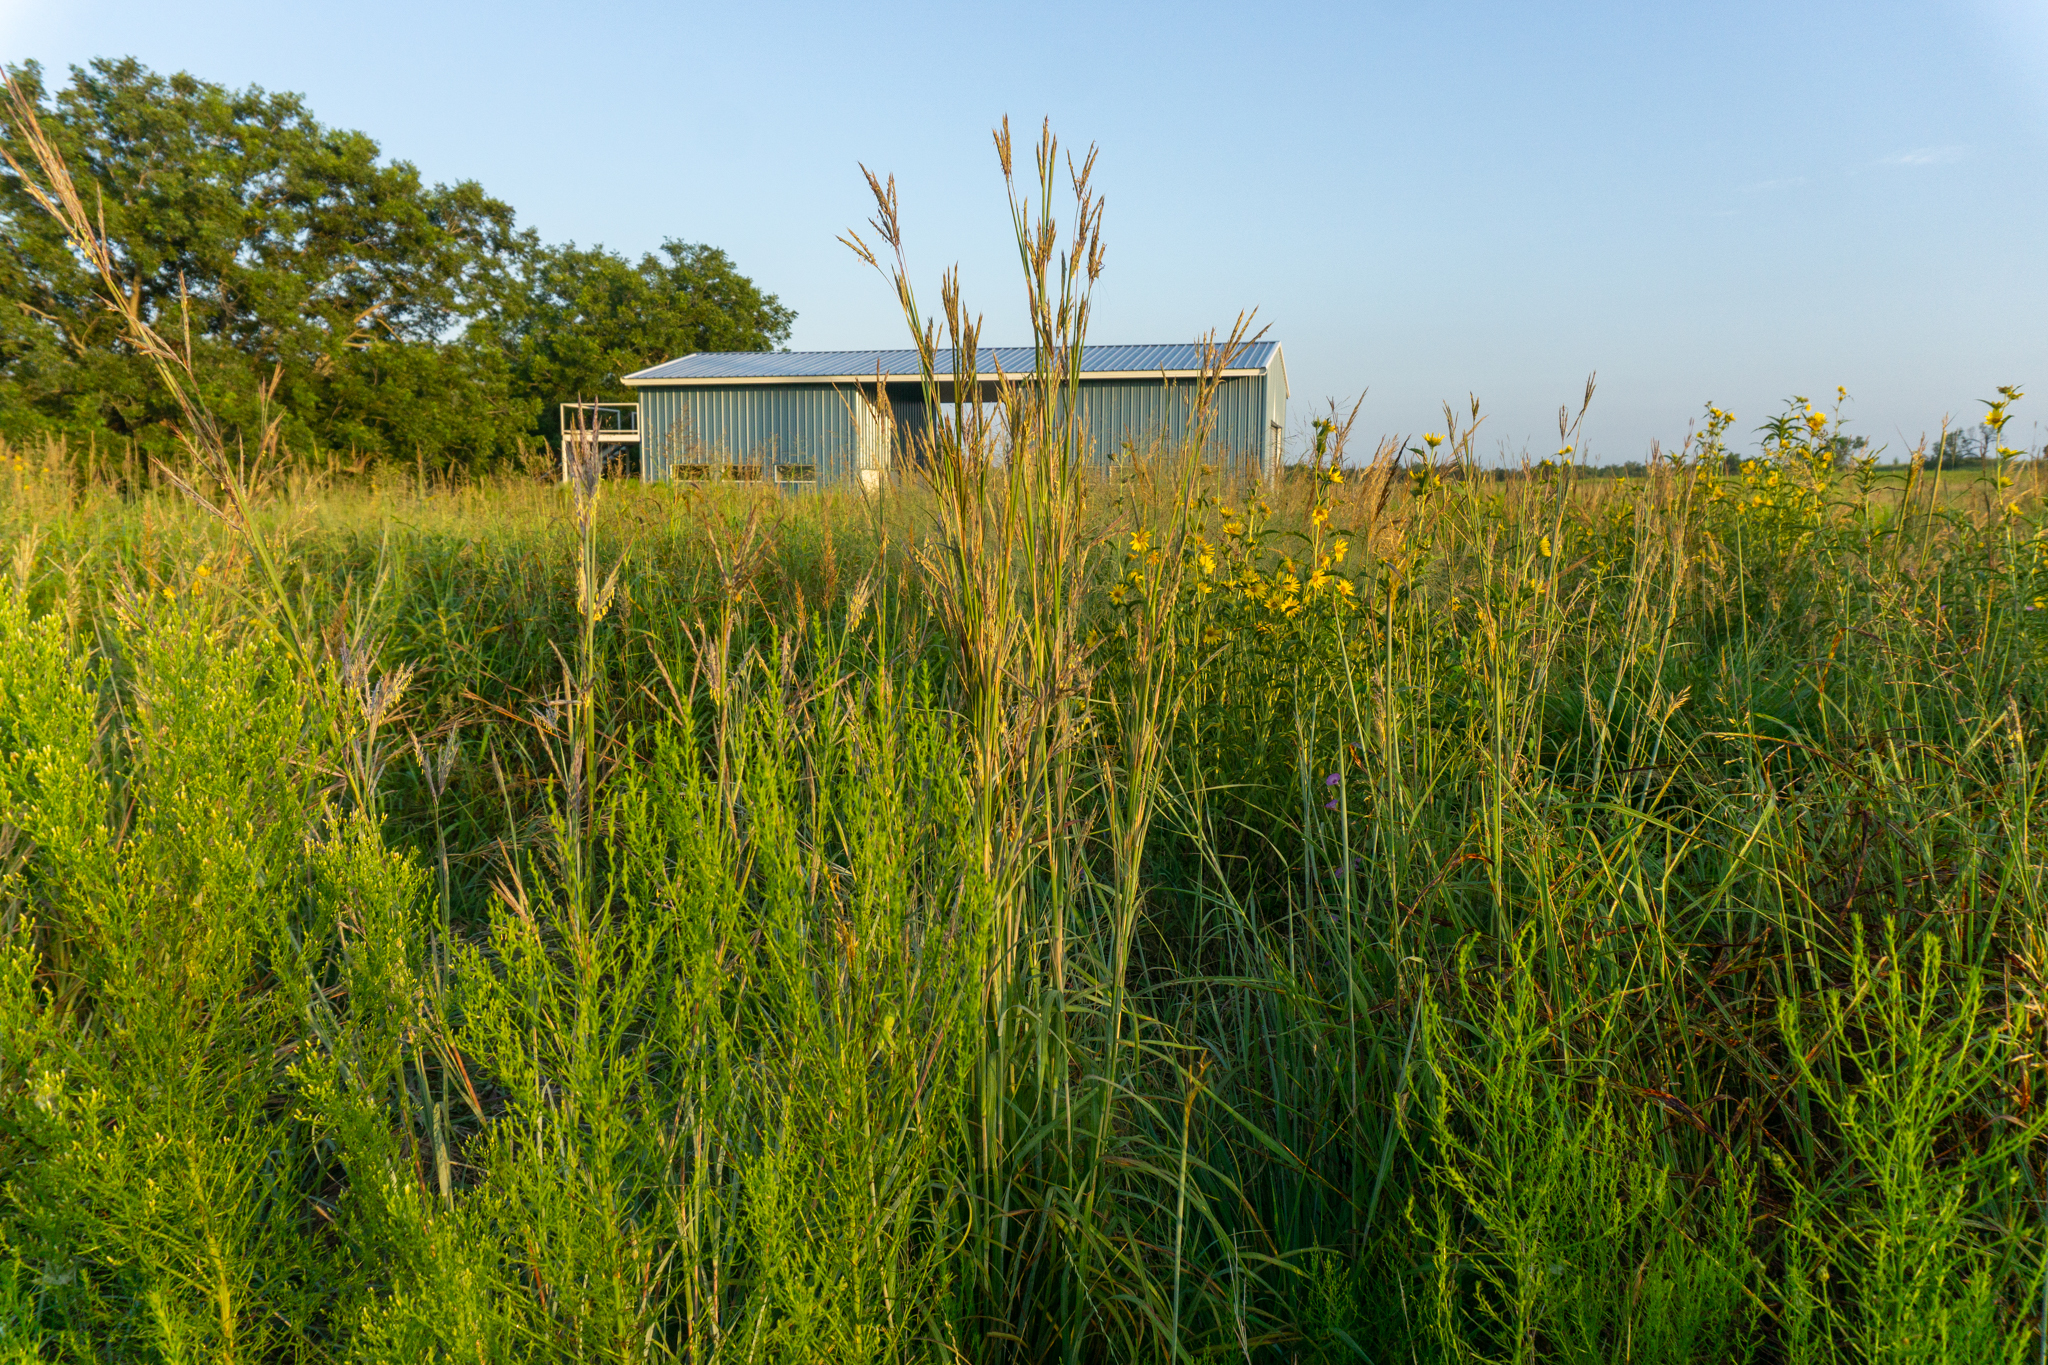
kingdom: Plantae
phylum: Tracheophyta
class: Liliopsida
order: Poales
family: Poaceae
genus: Andropogon
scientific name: Andropogon gerardi
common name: Big bluestem
